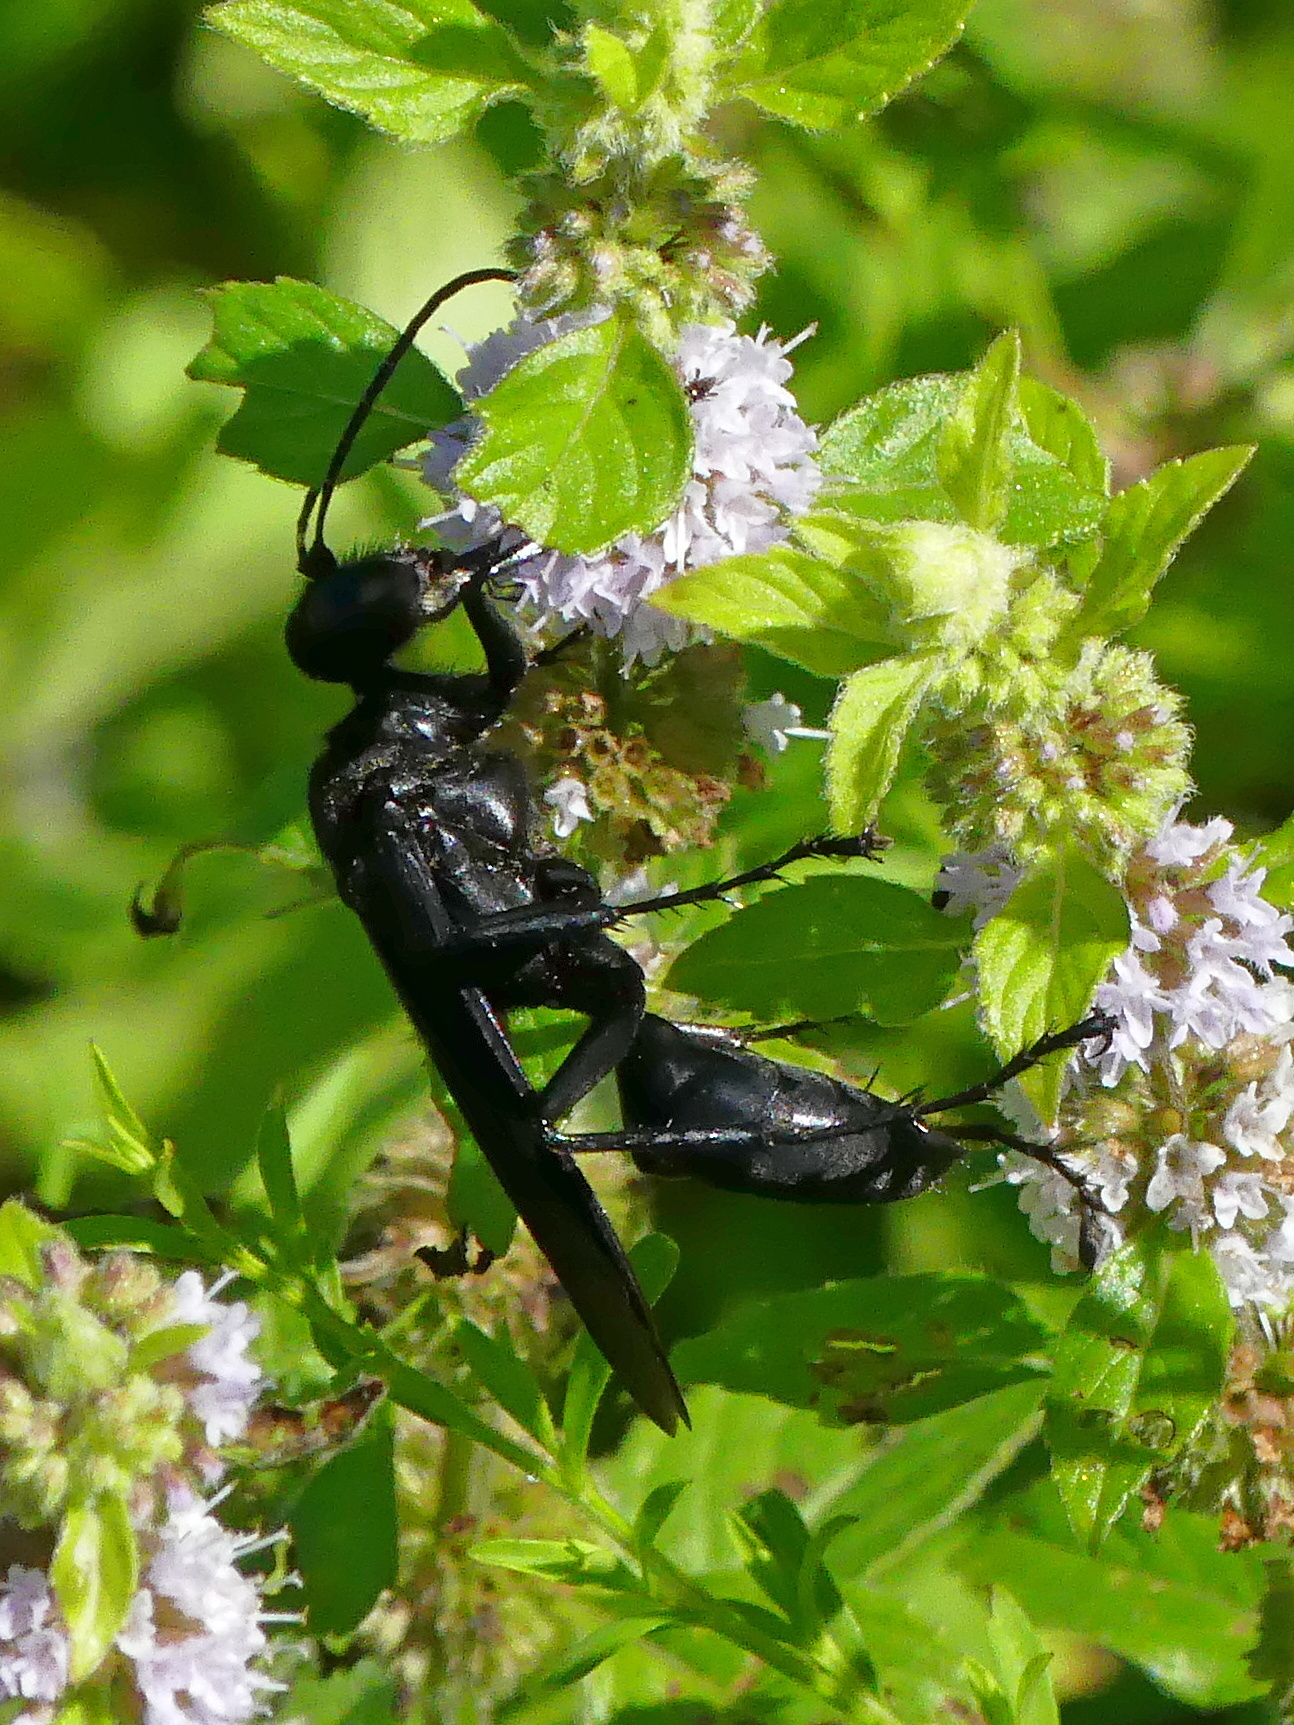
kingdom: Animalia
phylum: Arthropoda
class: Insecta
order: Hymenoptera
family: Sphecidae
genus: Sphex
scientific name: Sphex pensylvanicus
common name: Great black digger wasp
